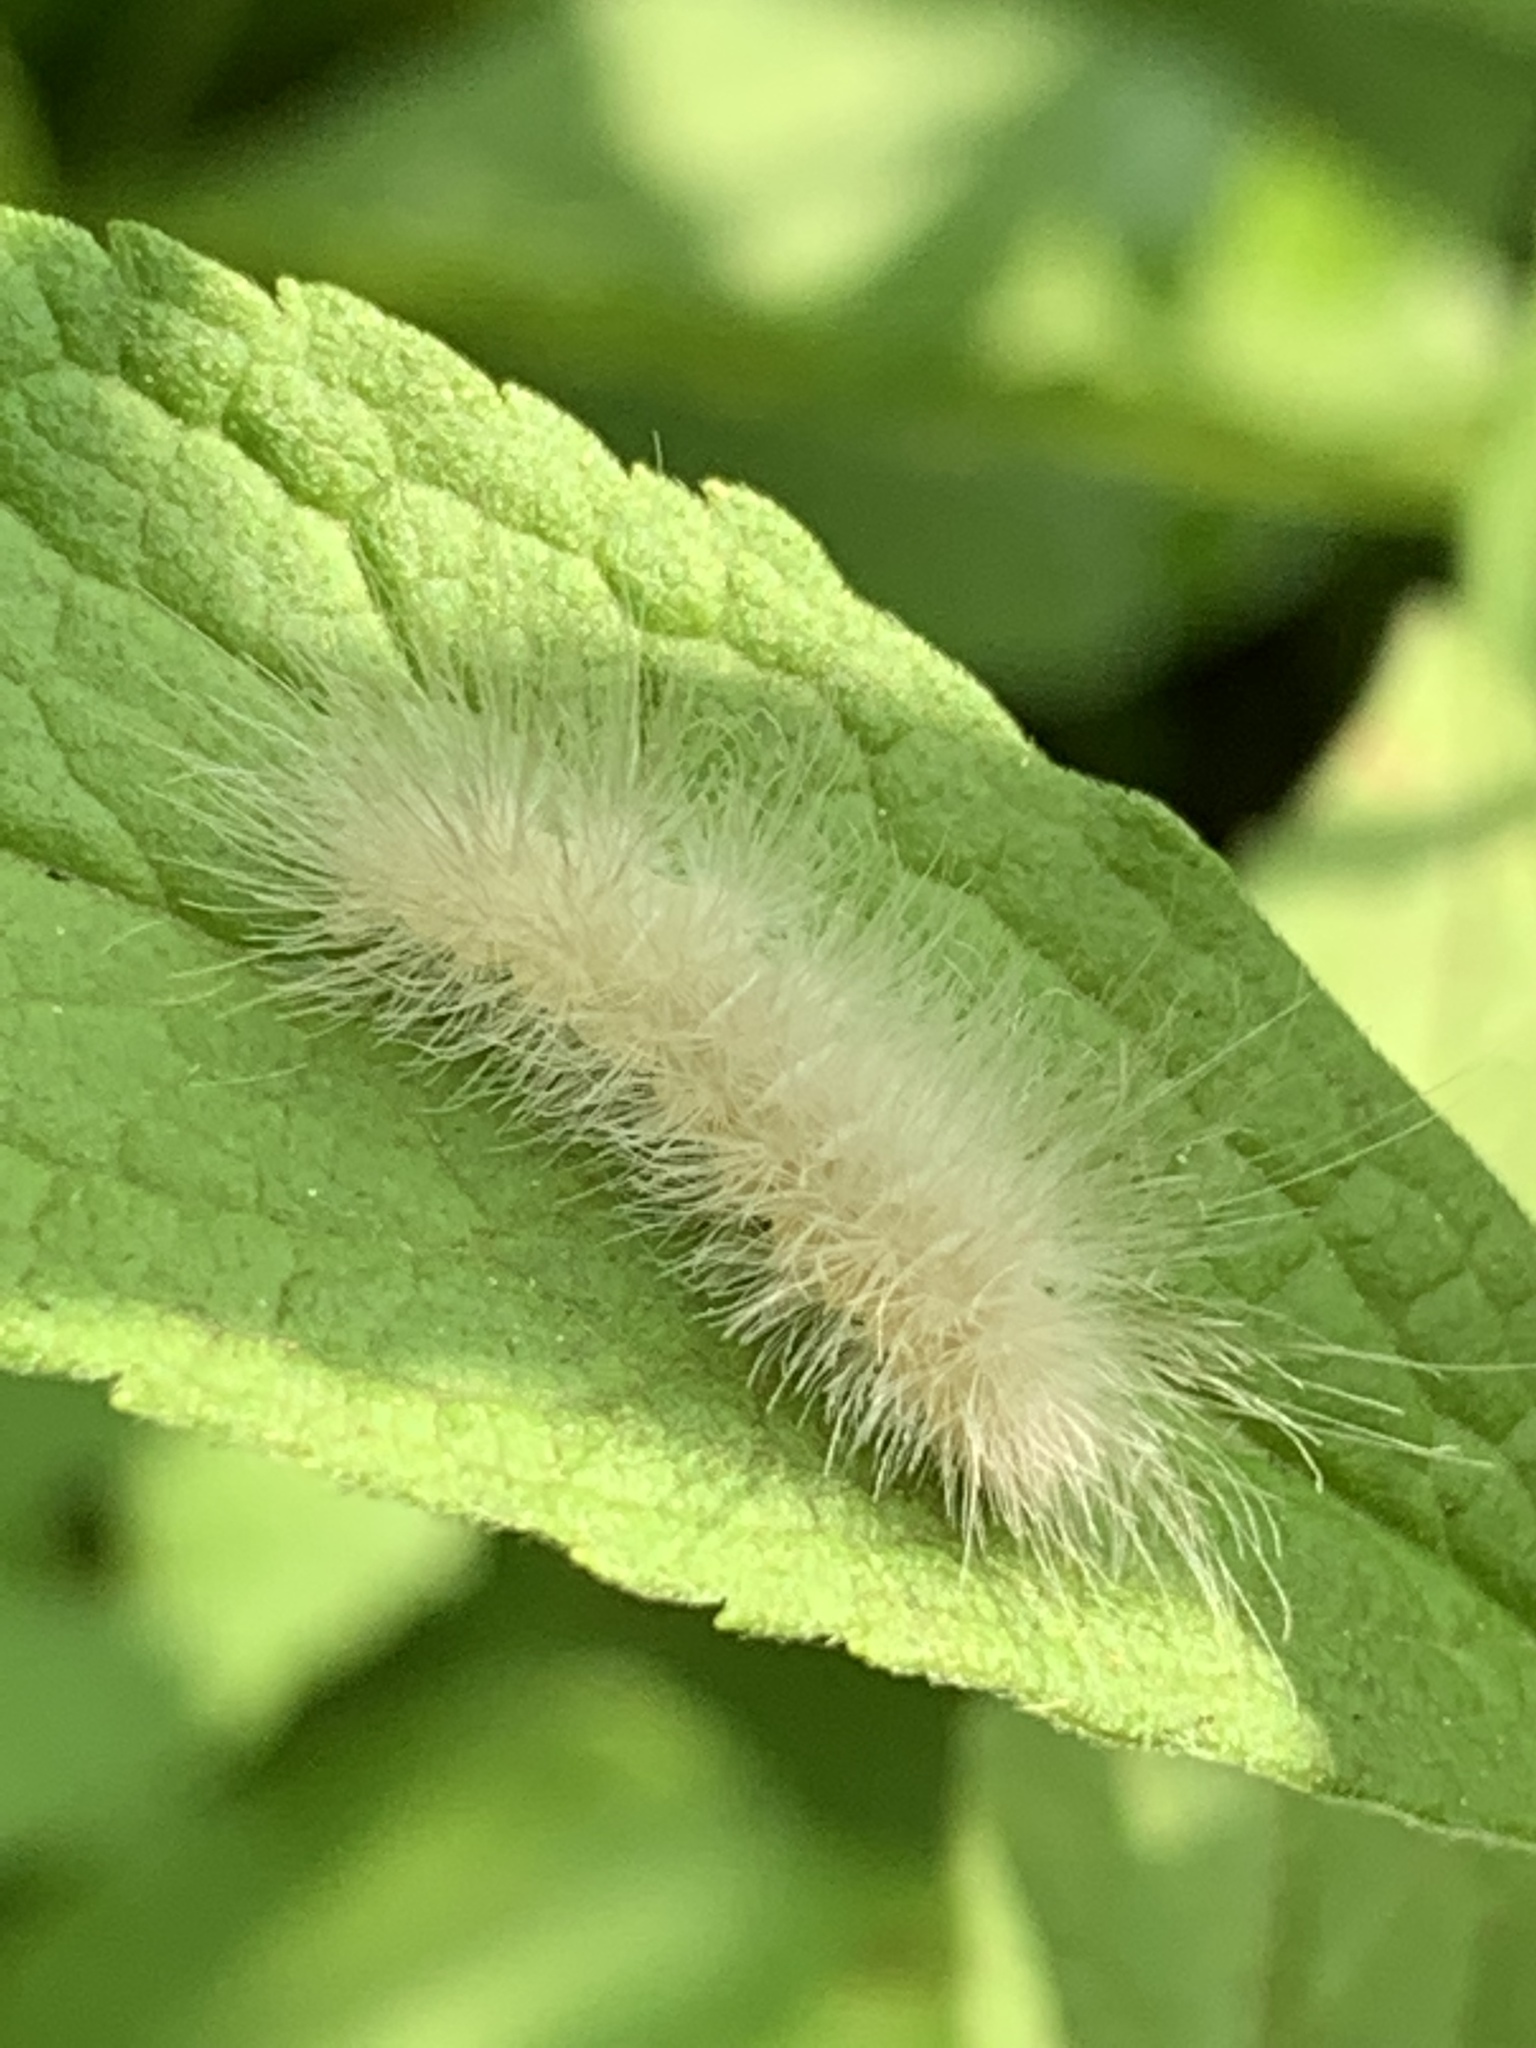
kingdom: Animalia
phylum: Arthropoda
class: Insecta
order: Lepidoptera
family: Erebidae
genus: Cycnia
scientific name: Cycnia tenera
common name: Delicate cycnia moth
